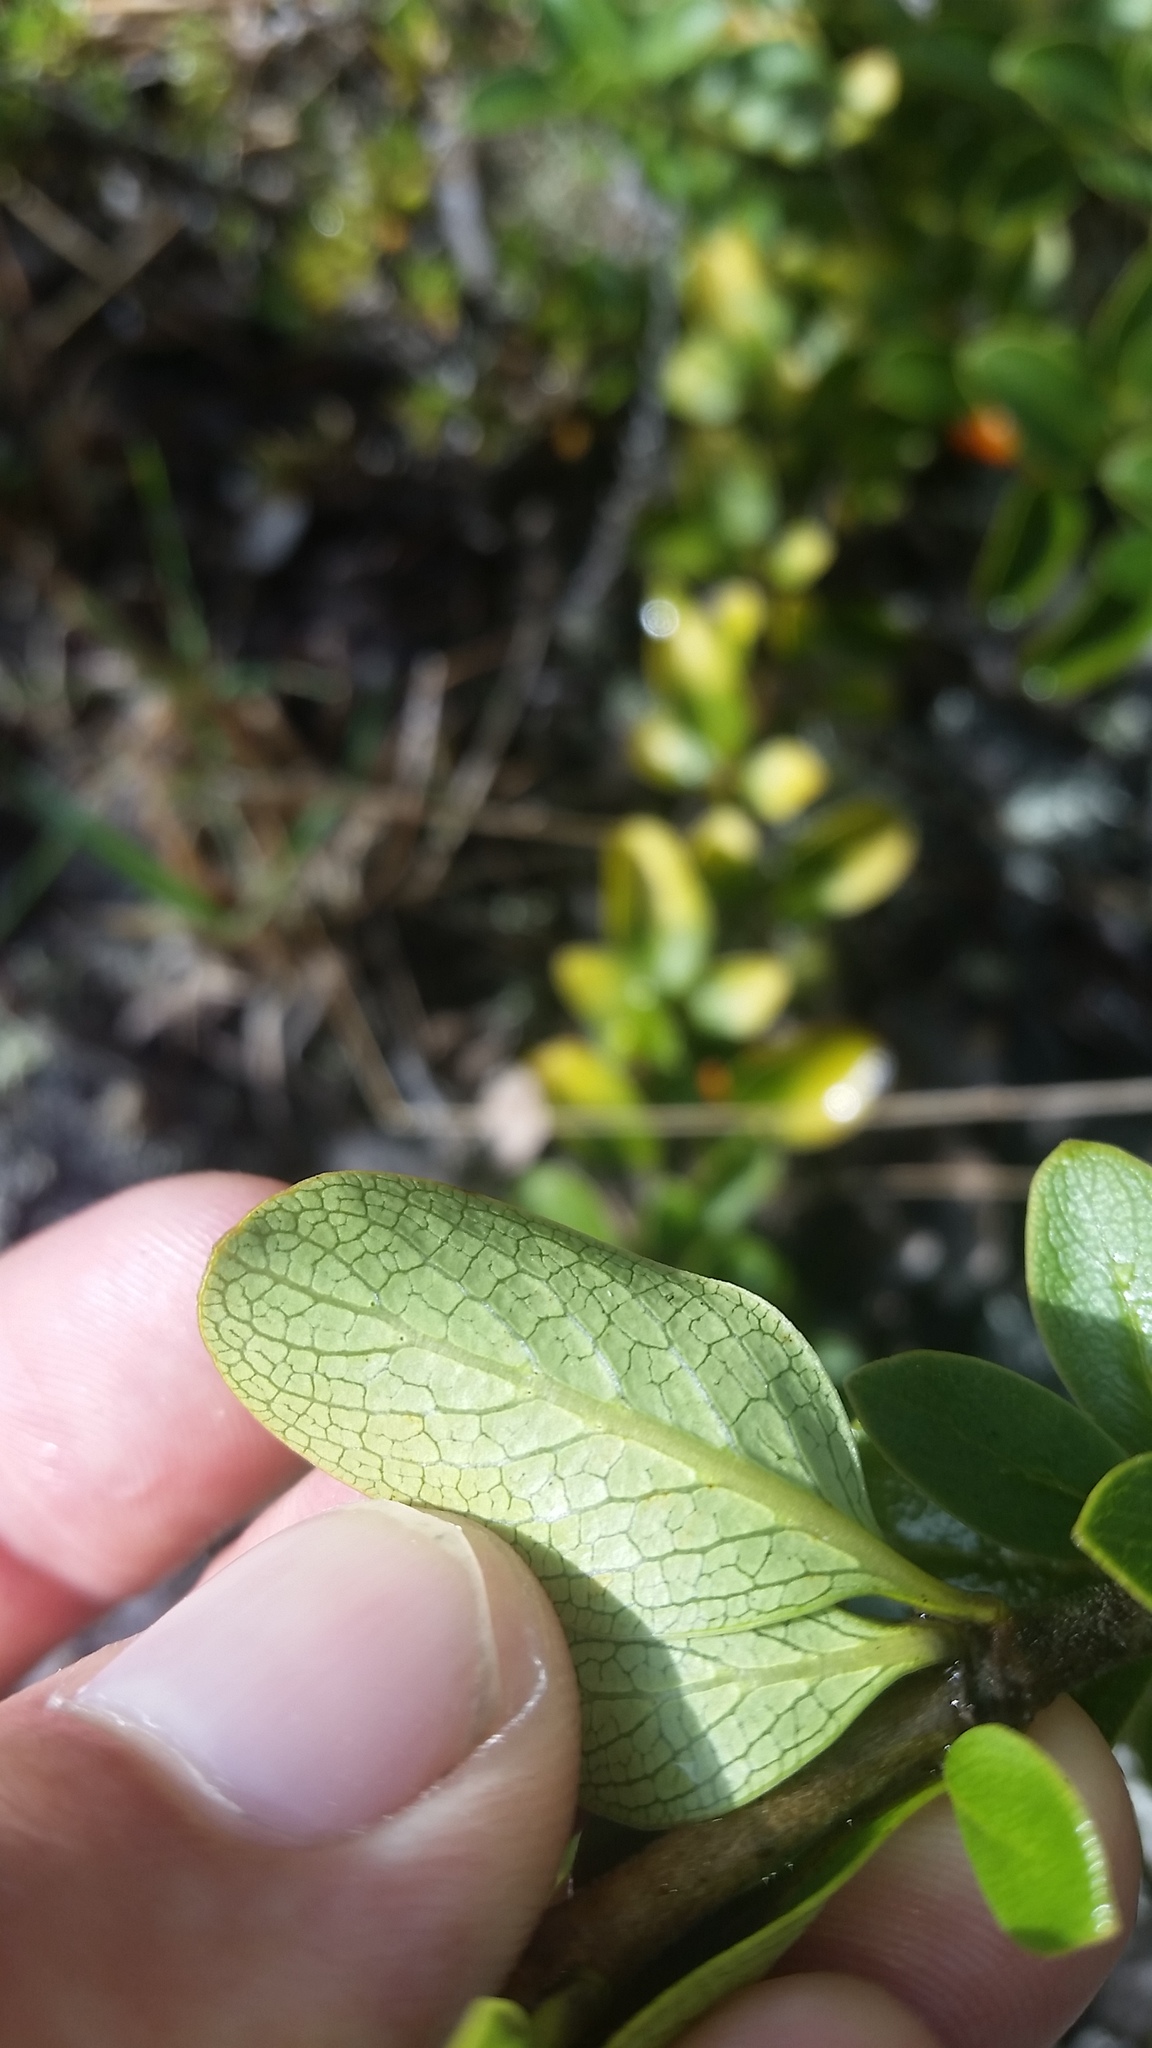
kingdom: Plantae
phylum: Tracheophyta
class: Magnoliopsida
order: Gentianales
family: Rubiaceae
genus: Coprosma
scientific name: Coprosma montana
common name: Alpine mirror plant
